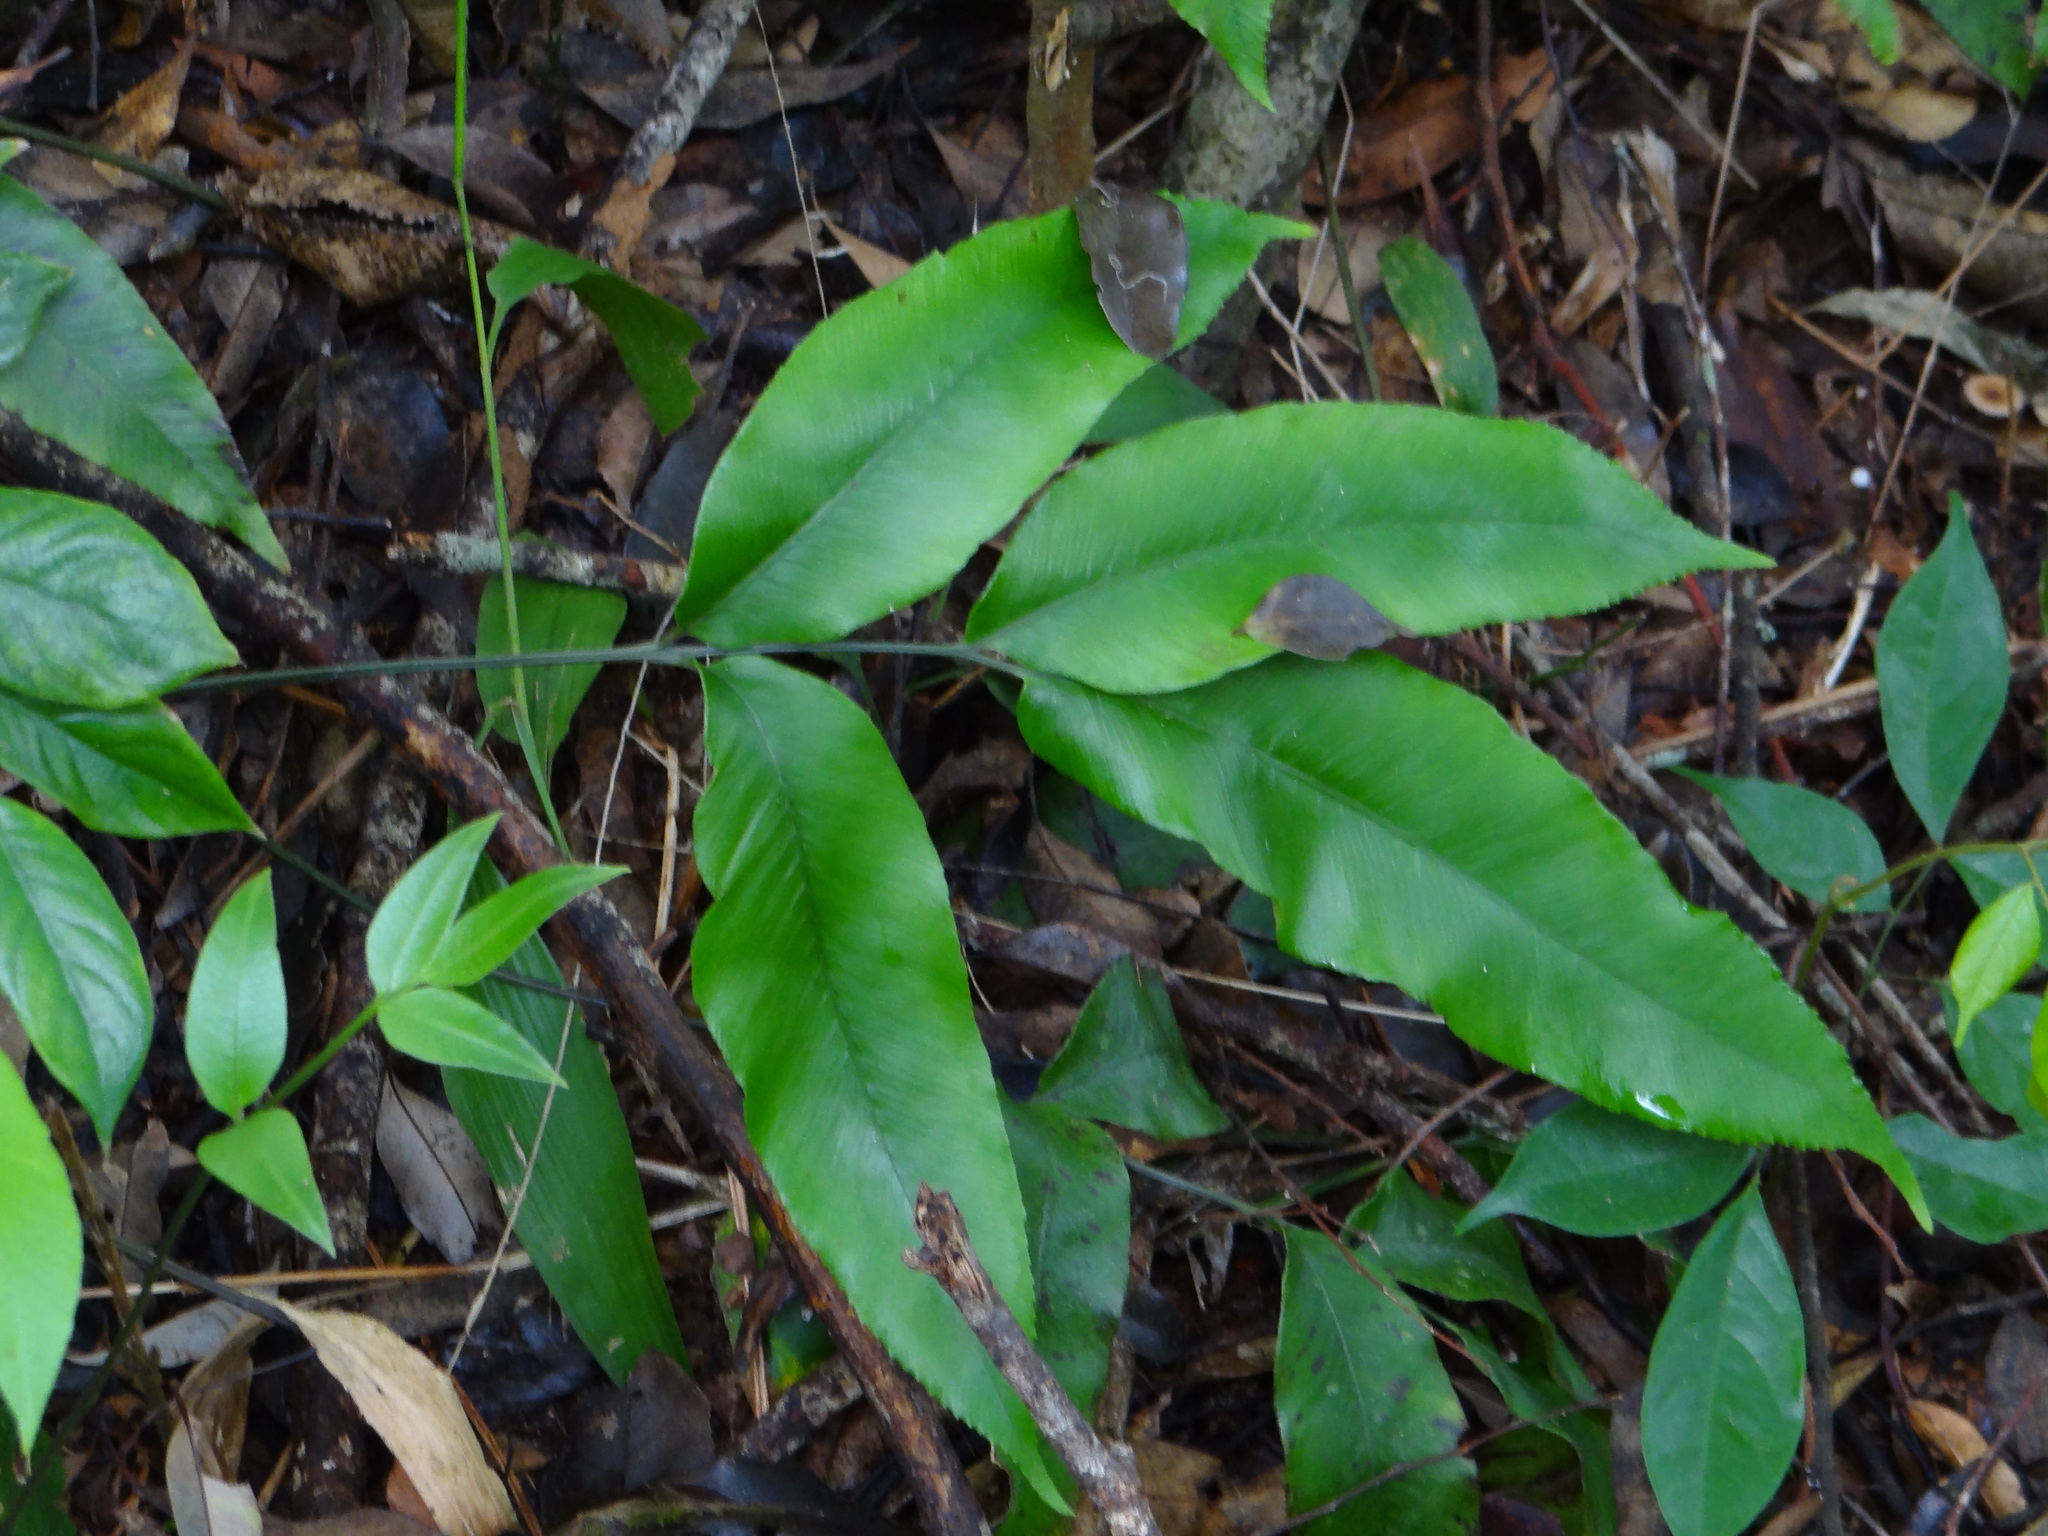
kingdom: Plantae
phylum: Tracheophyta
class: Polypodiopsida
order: Polypodiales
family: Athyriaceae
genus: Diplazium
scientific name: Diplazium lineolatum
